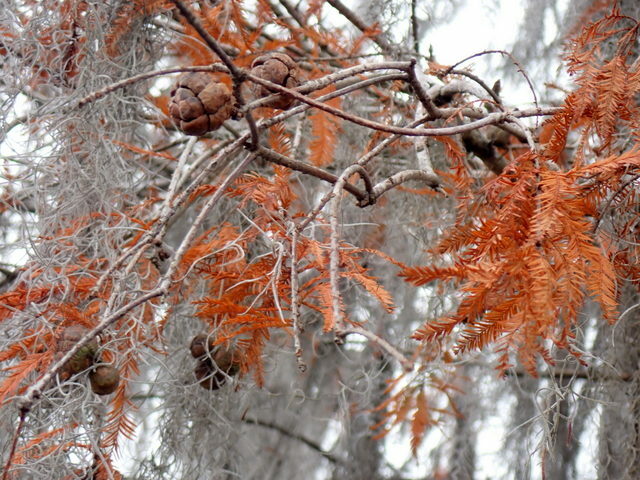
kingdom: Plantae
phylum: Tracheophyta
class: Pinopsida
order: Pinales
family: Cupressaceae
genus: Taxodium
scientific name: Taxodium distichum
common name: Bald cypress
